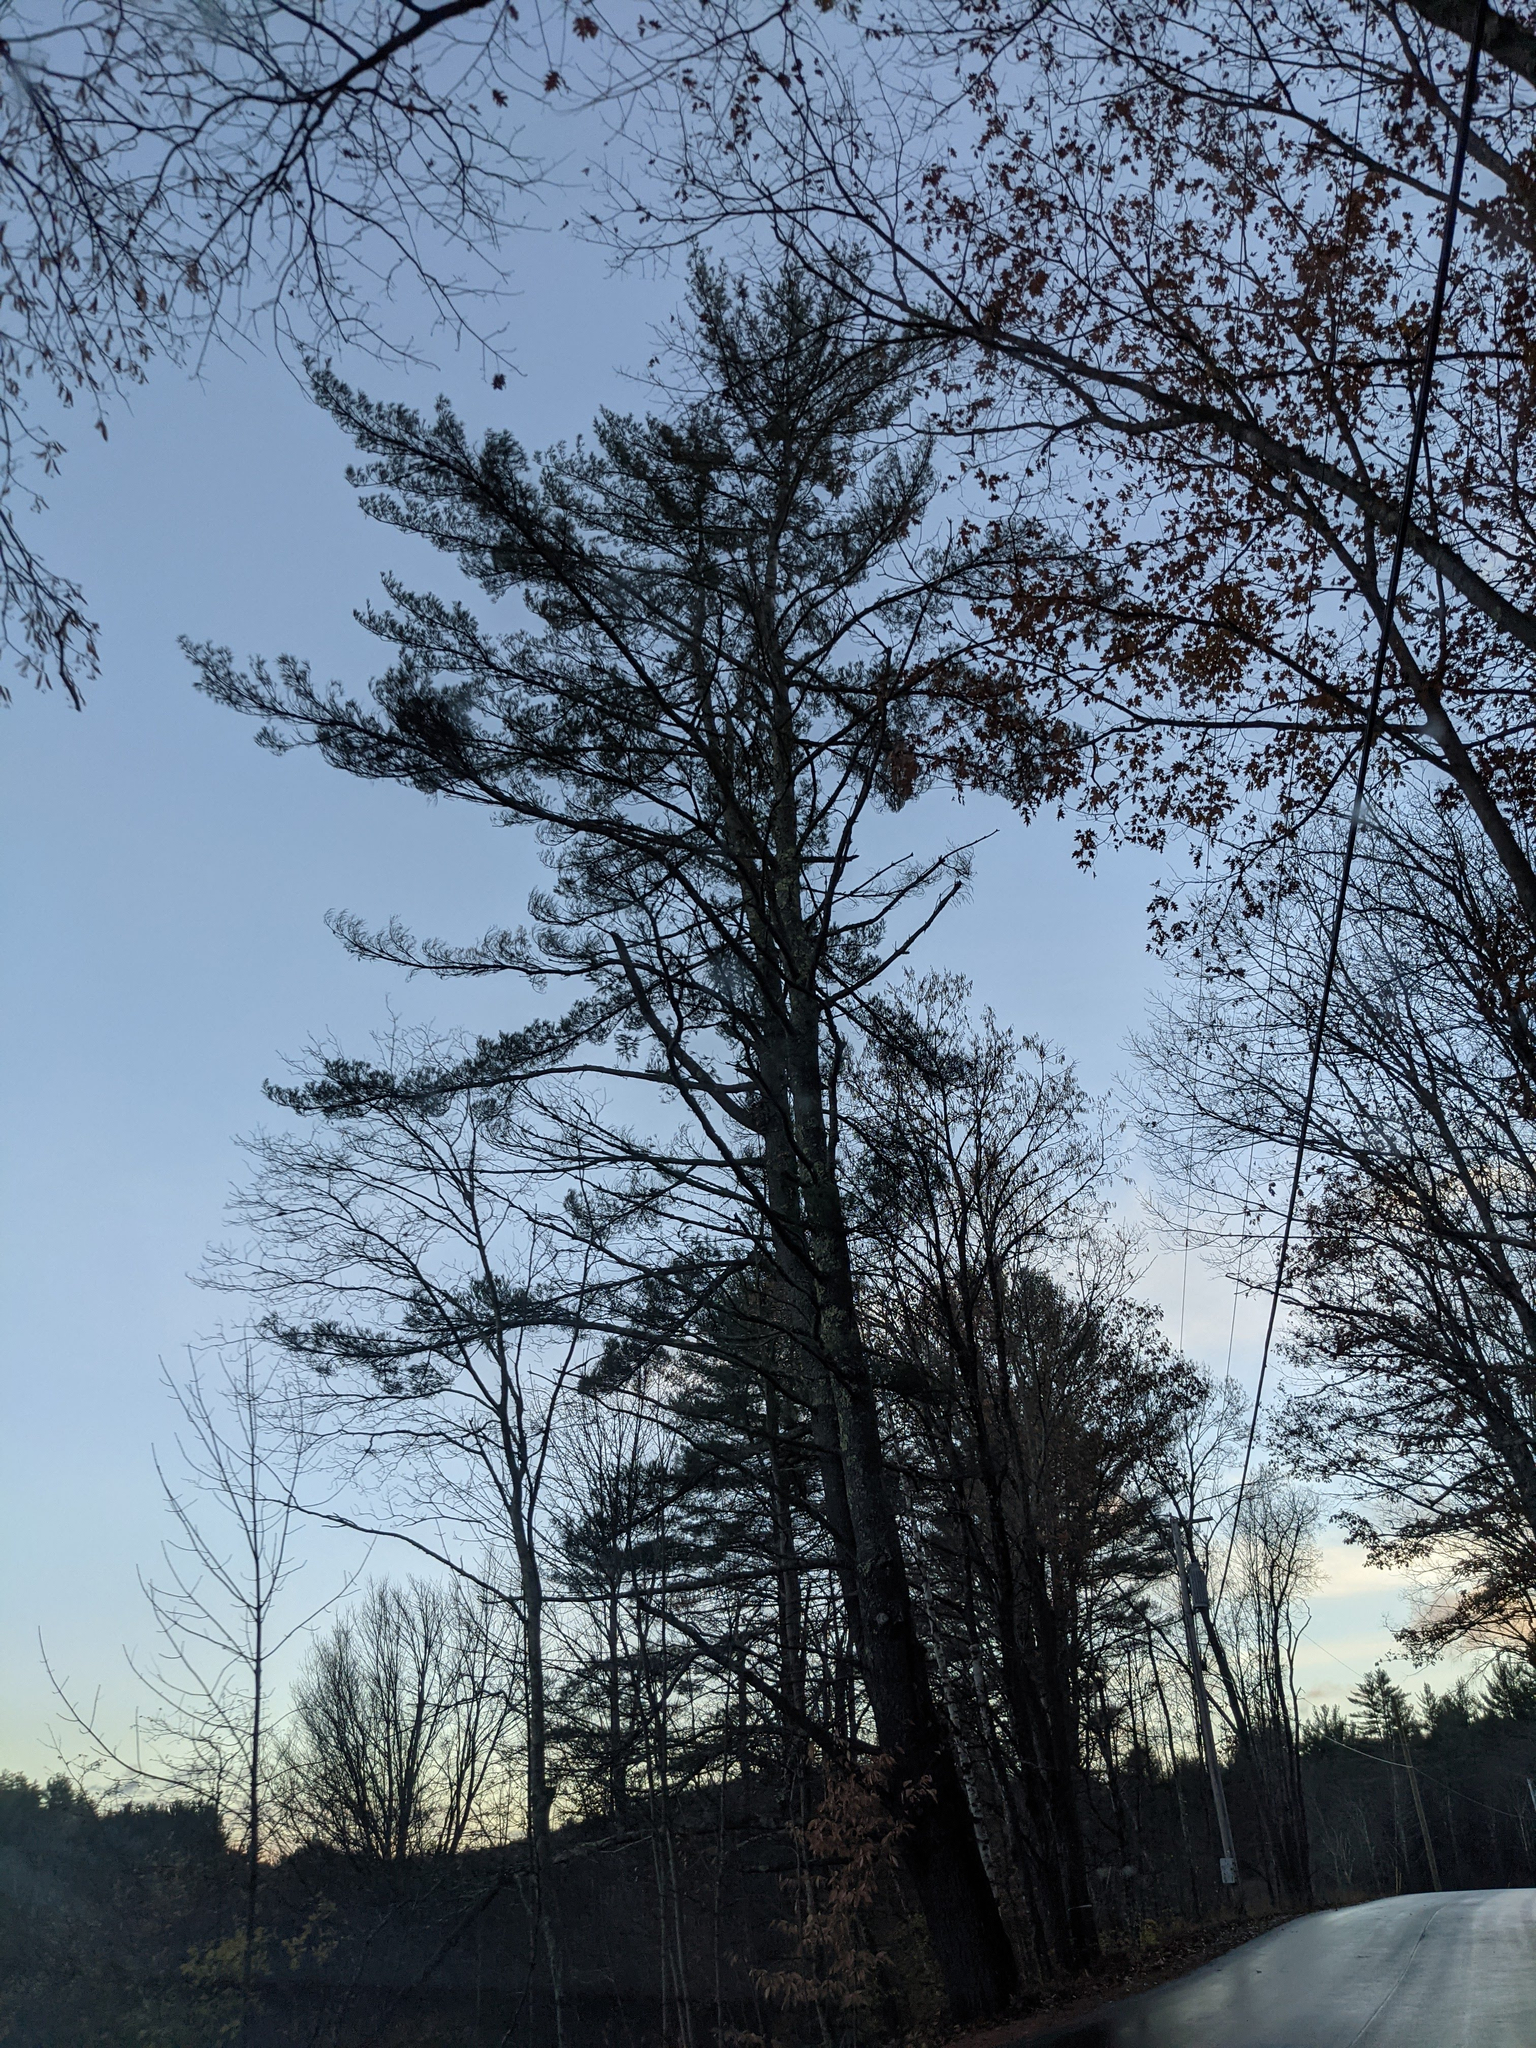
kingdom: Plantae
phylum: Tracheophyta
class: Pinopsida
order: Pinales
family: Pinaceae
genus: Pinus
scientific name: Pinus strobus
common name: Weymouth pine
